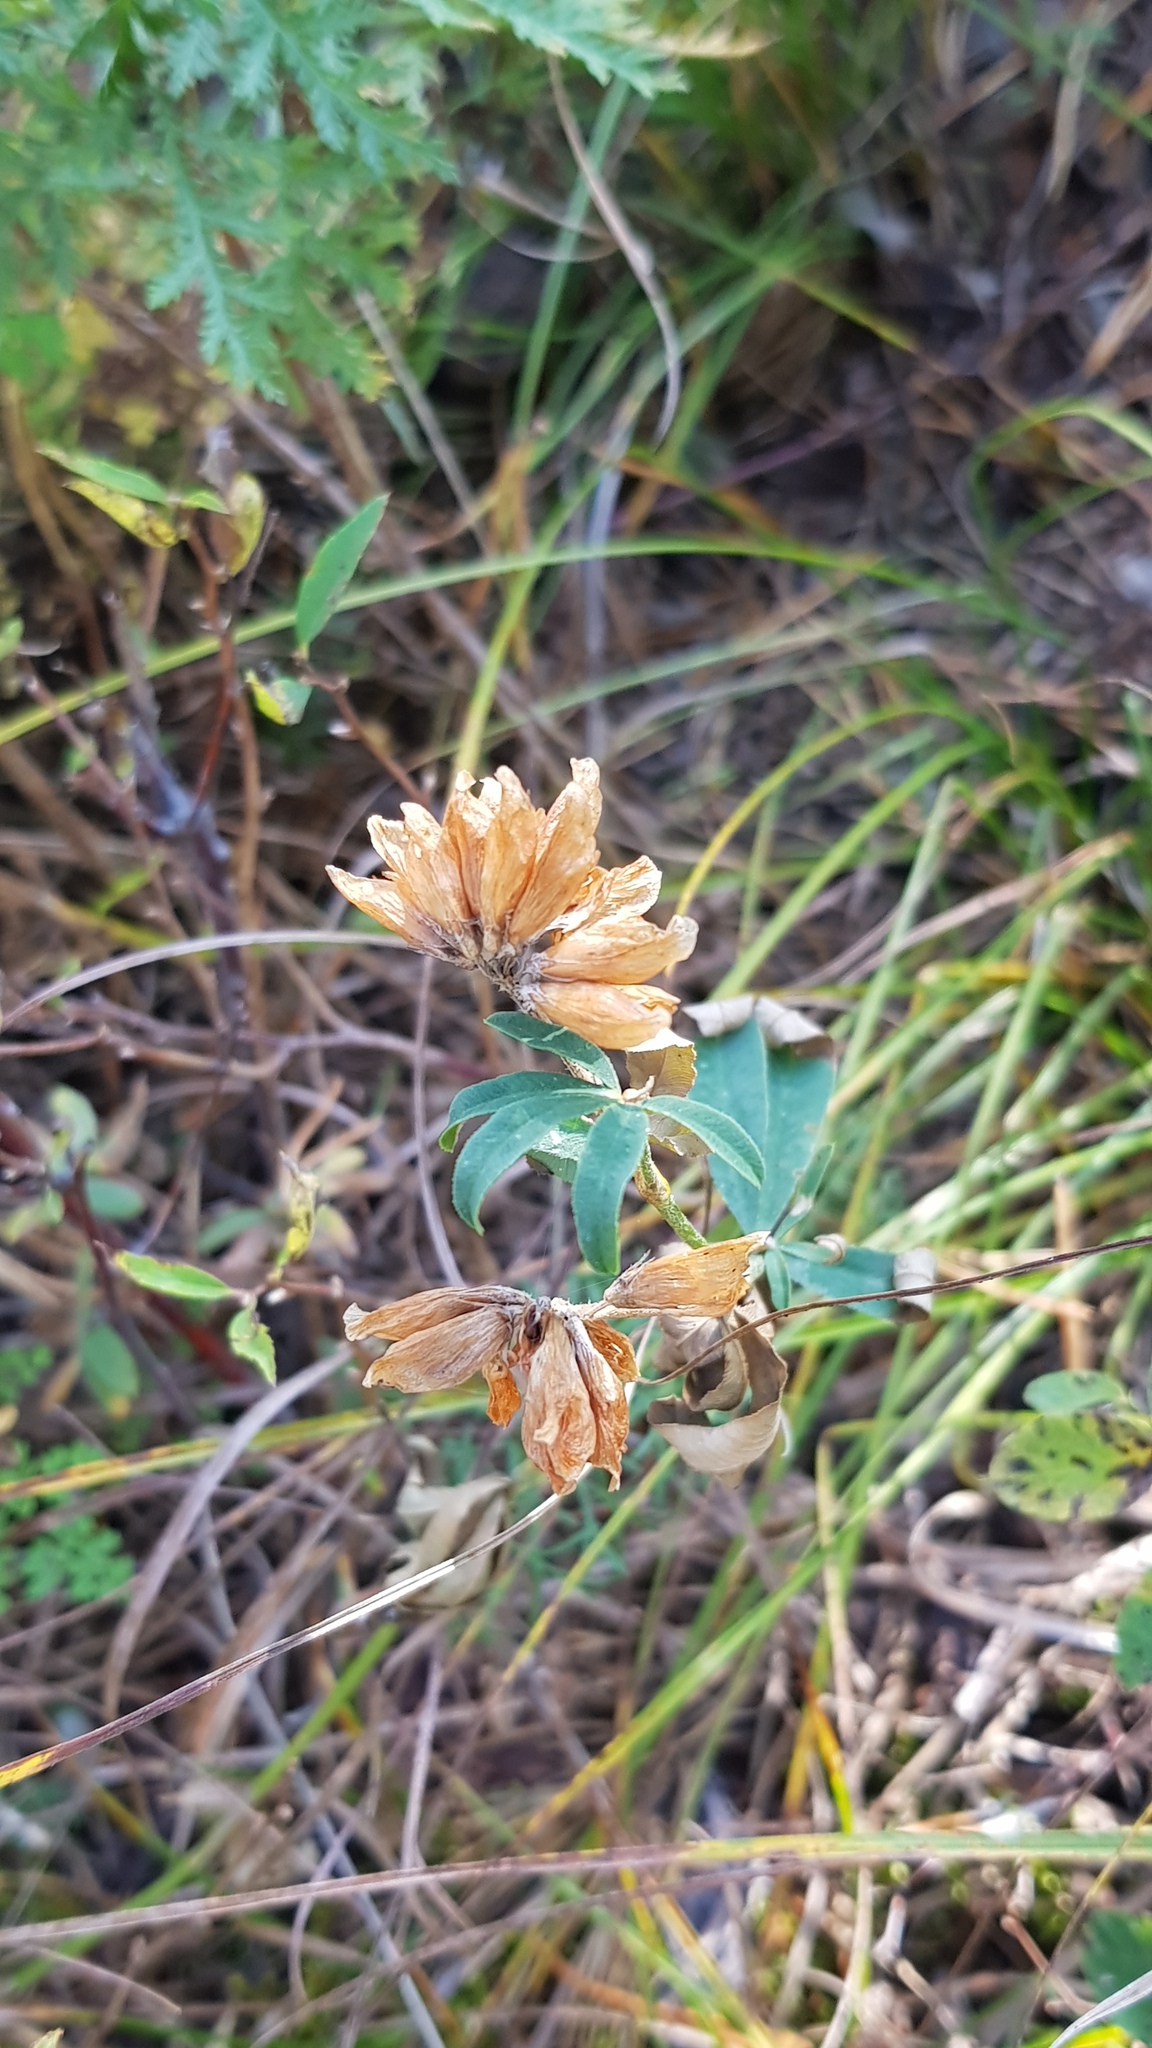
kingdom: Plantae
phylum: Tracheophyta
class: Magnoliopsida
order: Fabales
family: Fabaceae
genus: Trifolium
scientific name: Trifolium lupinaster
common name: Lupine clover
